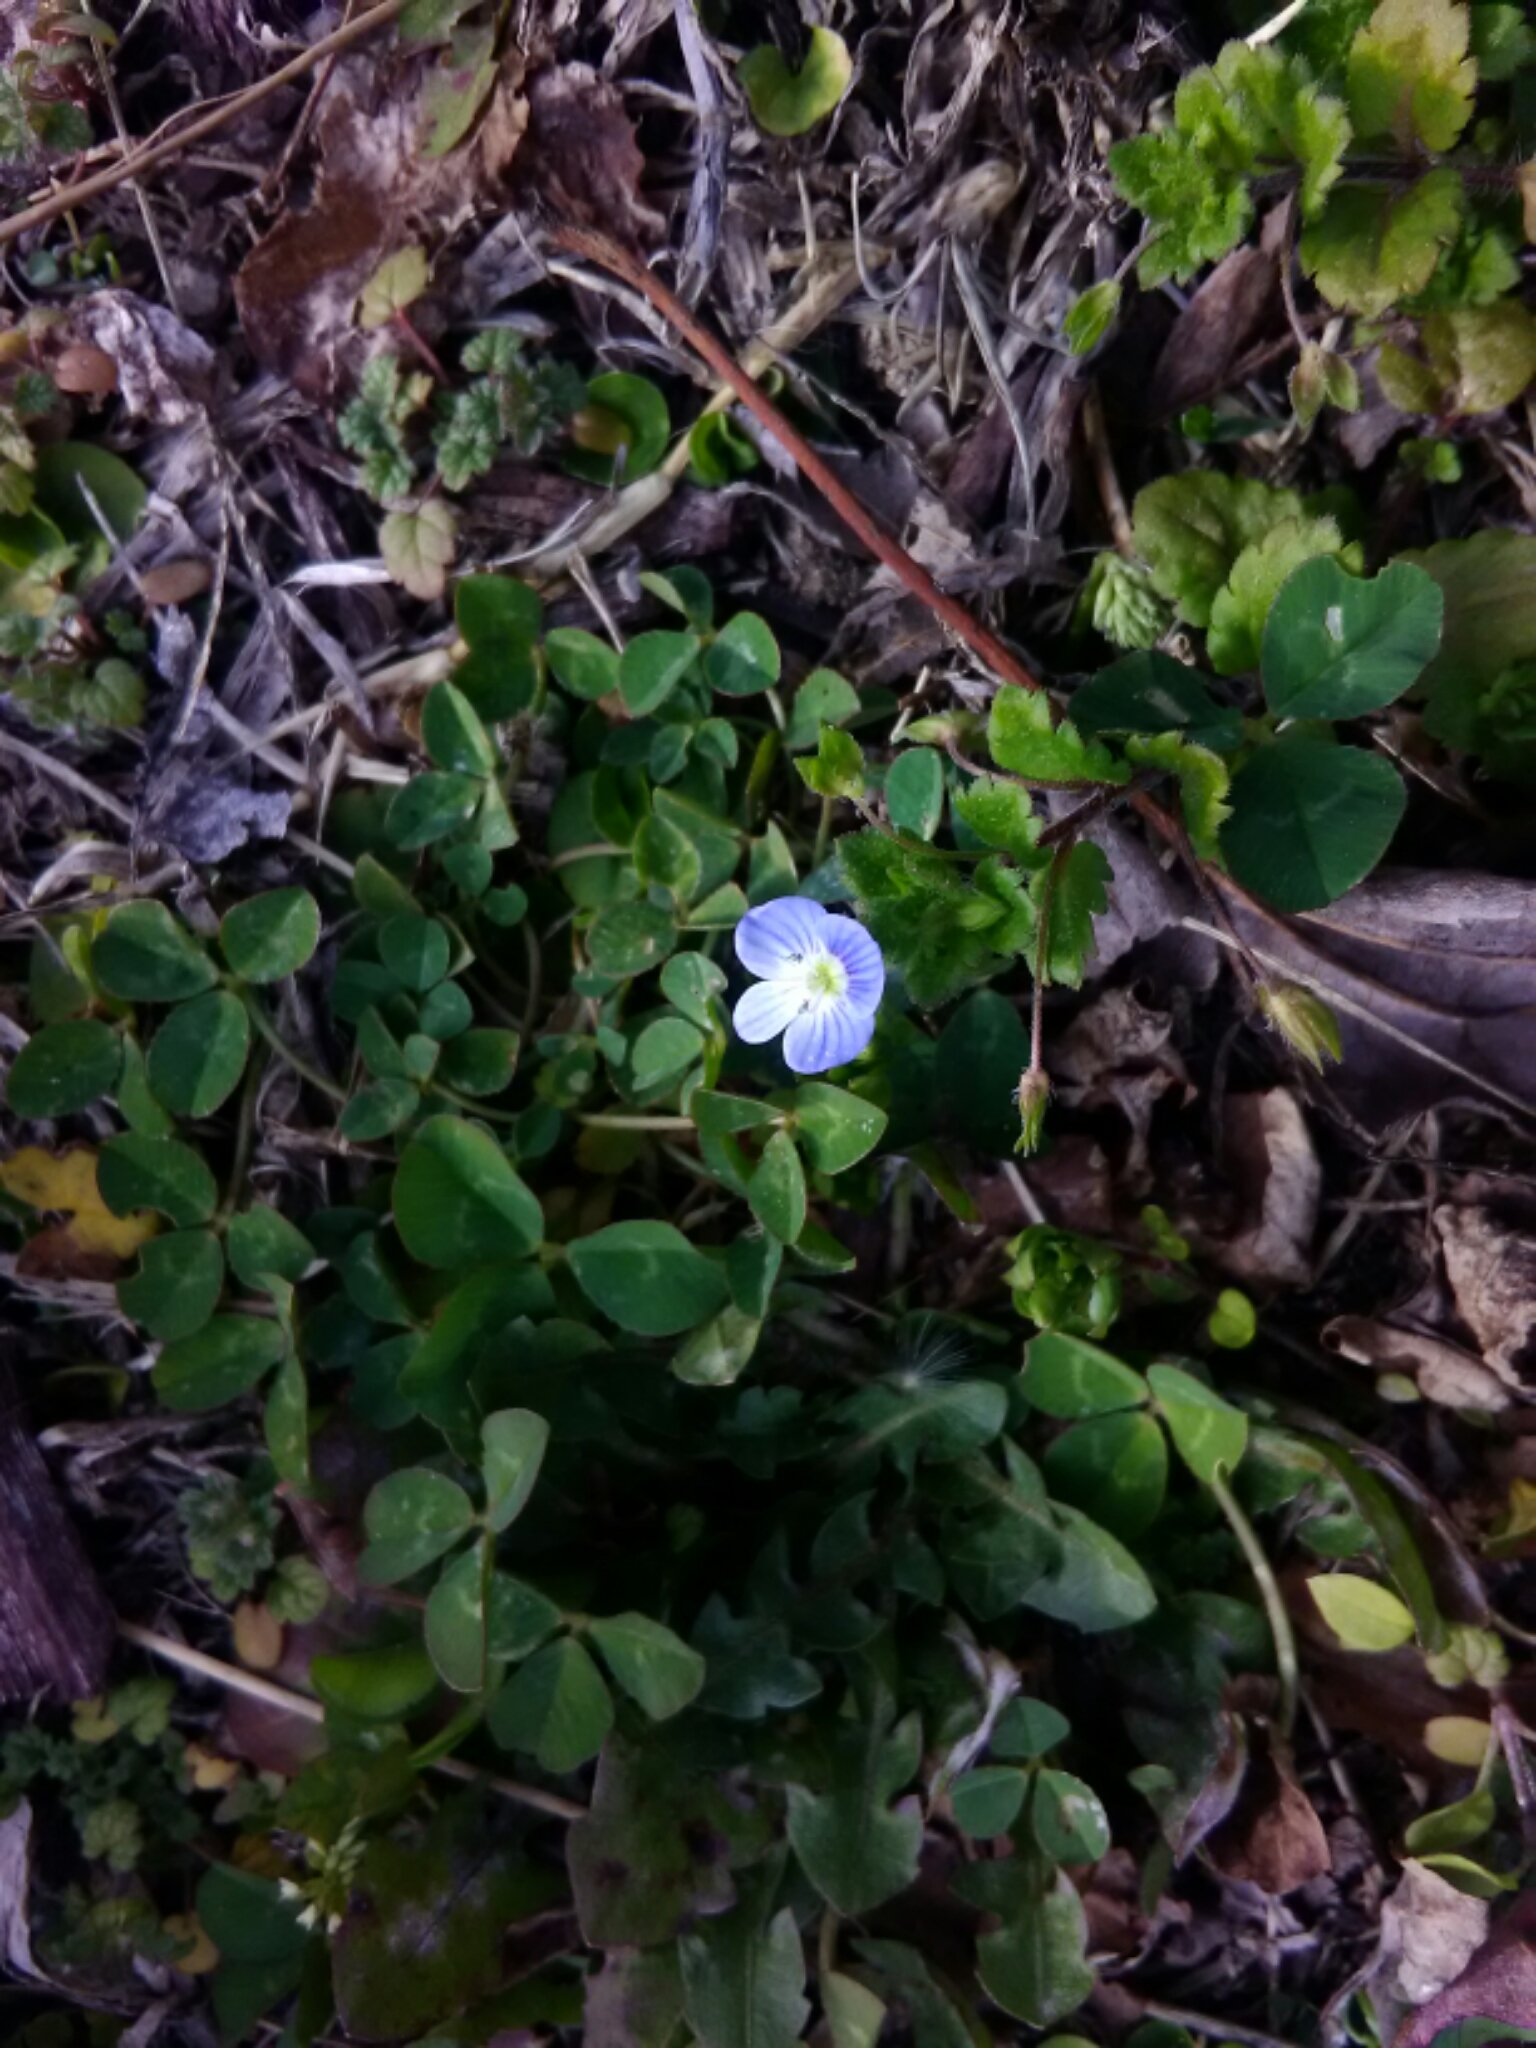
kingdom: Plantae
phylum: Tracheophyta
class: Magnoliopsida
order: Lamiales
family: Plantaginaceae
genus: Veronica
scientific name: Veronica persica
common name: Common field-speedwell
